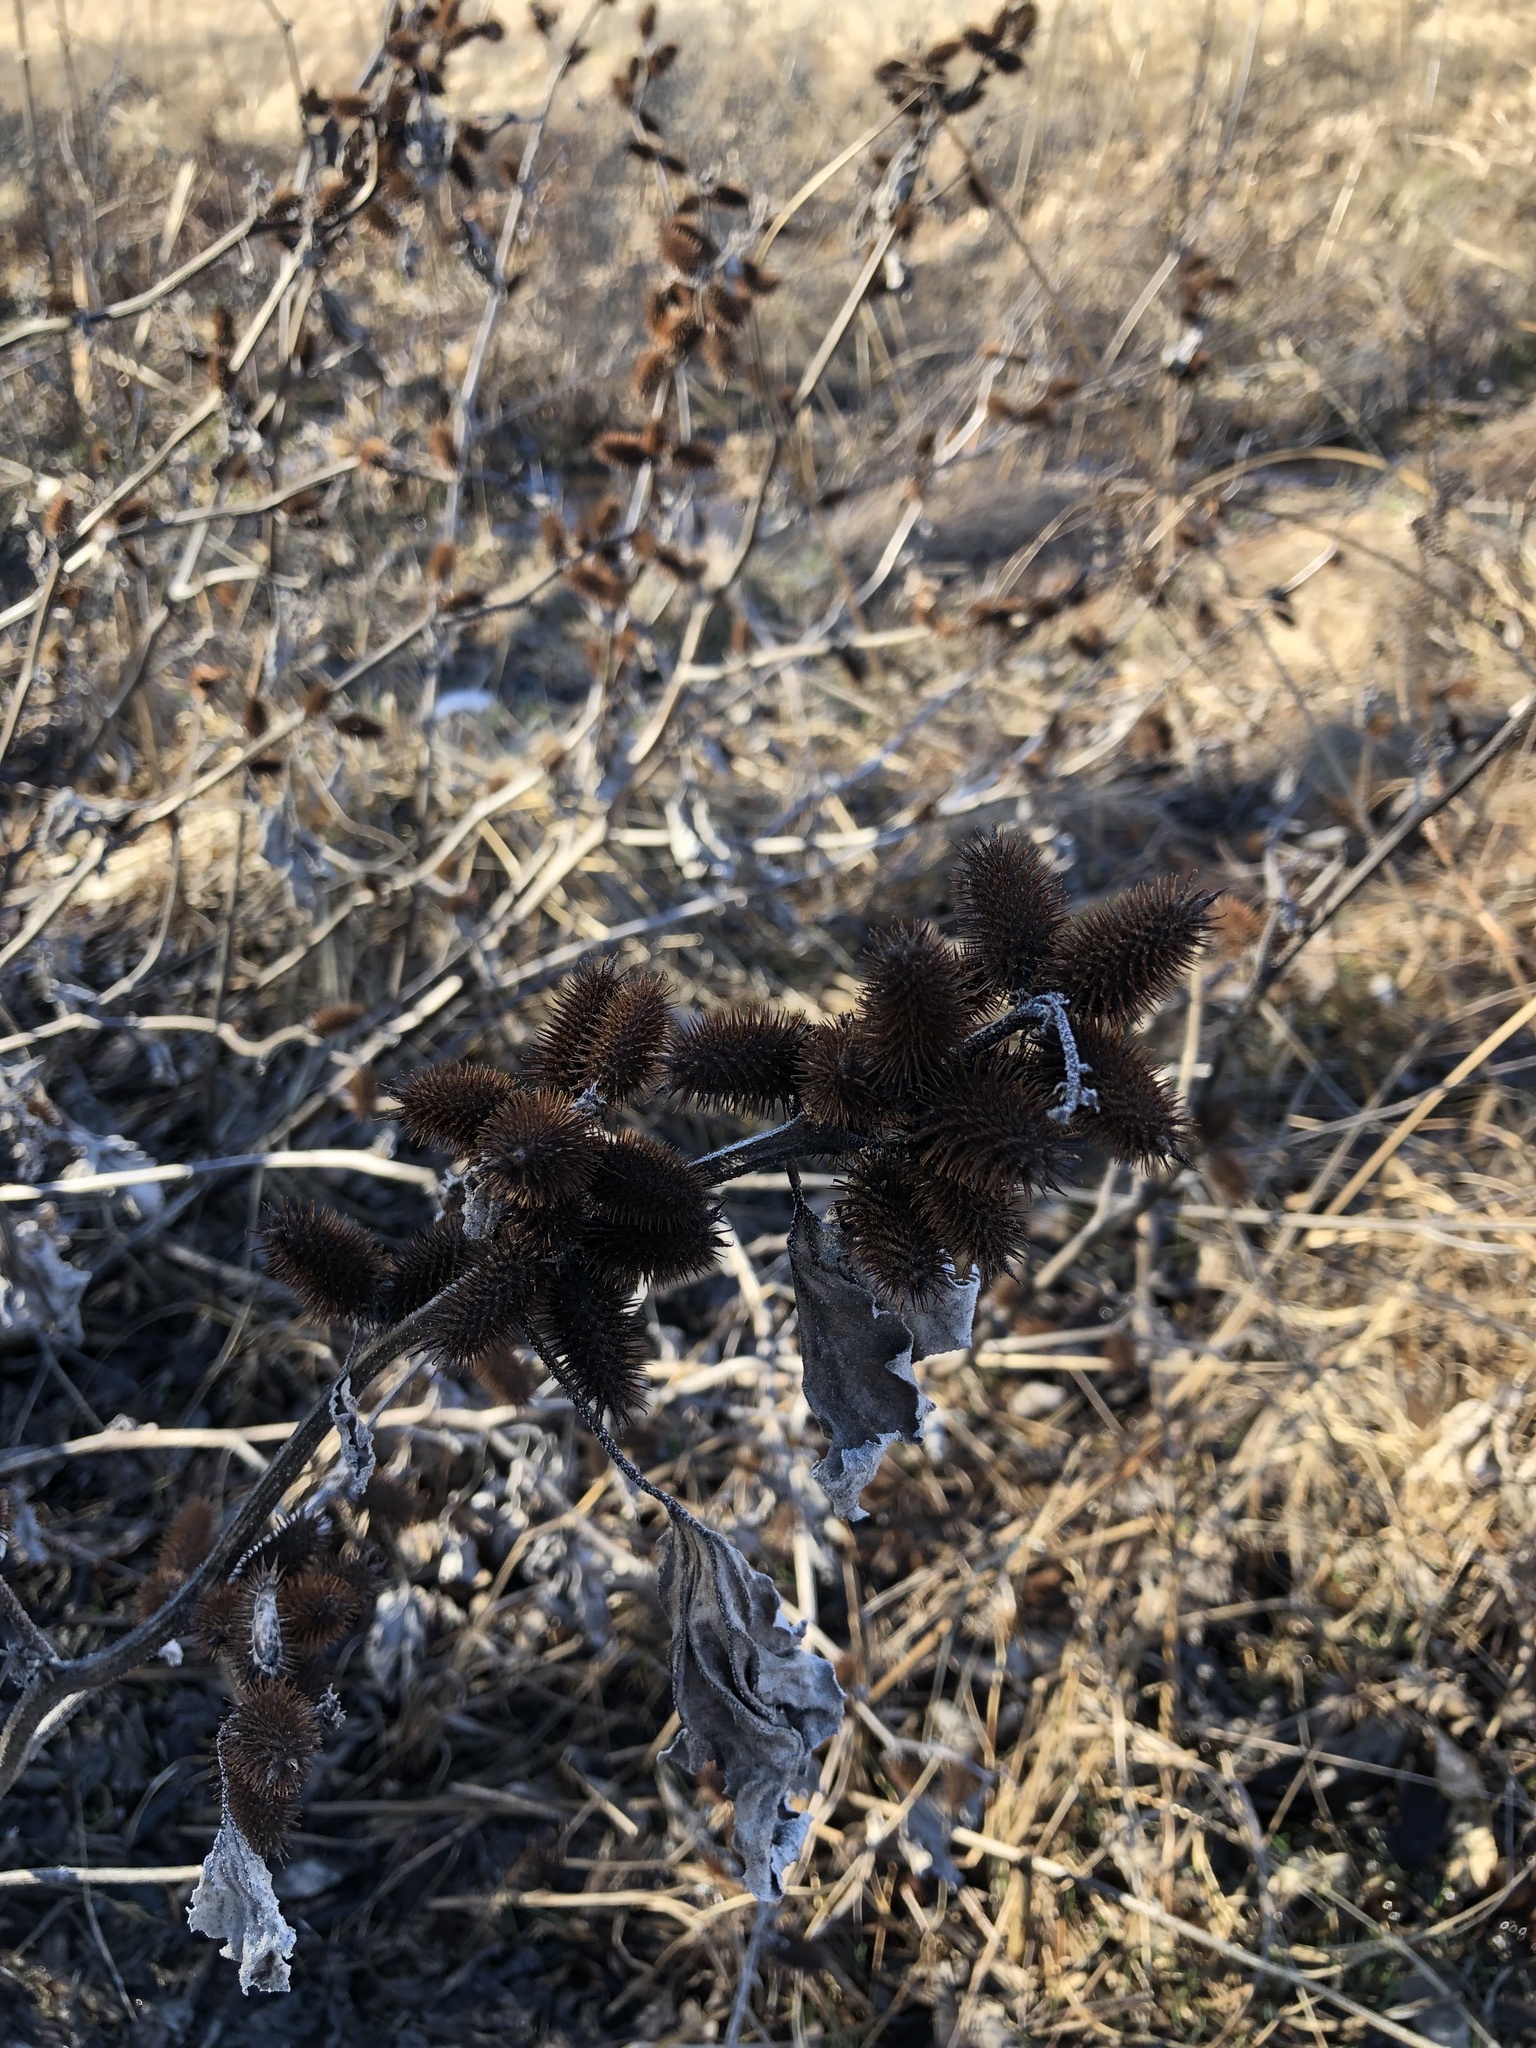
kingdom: Plantae
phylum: Tracheophyta
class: Magnoliopsida
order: Asterales
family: Asteraceae
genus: Xanthium
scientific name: Xanthium strumarium
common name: Rough cocklebur
